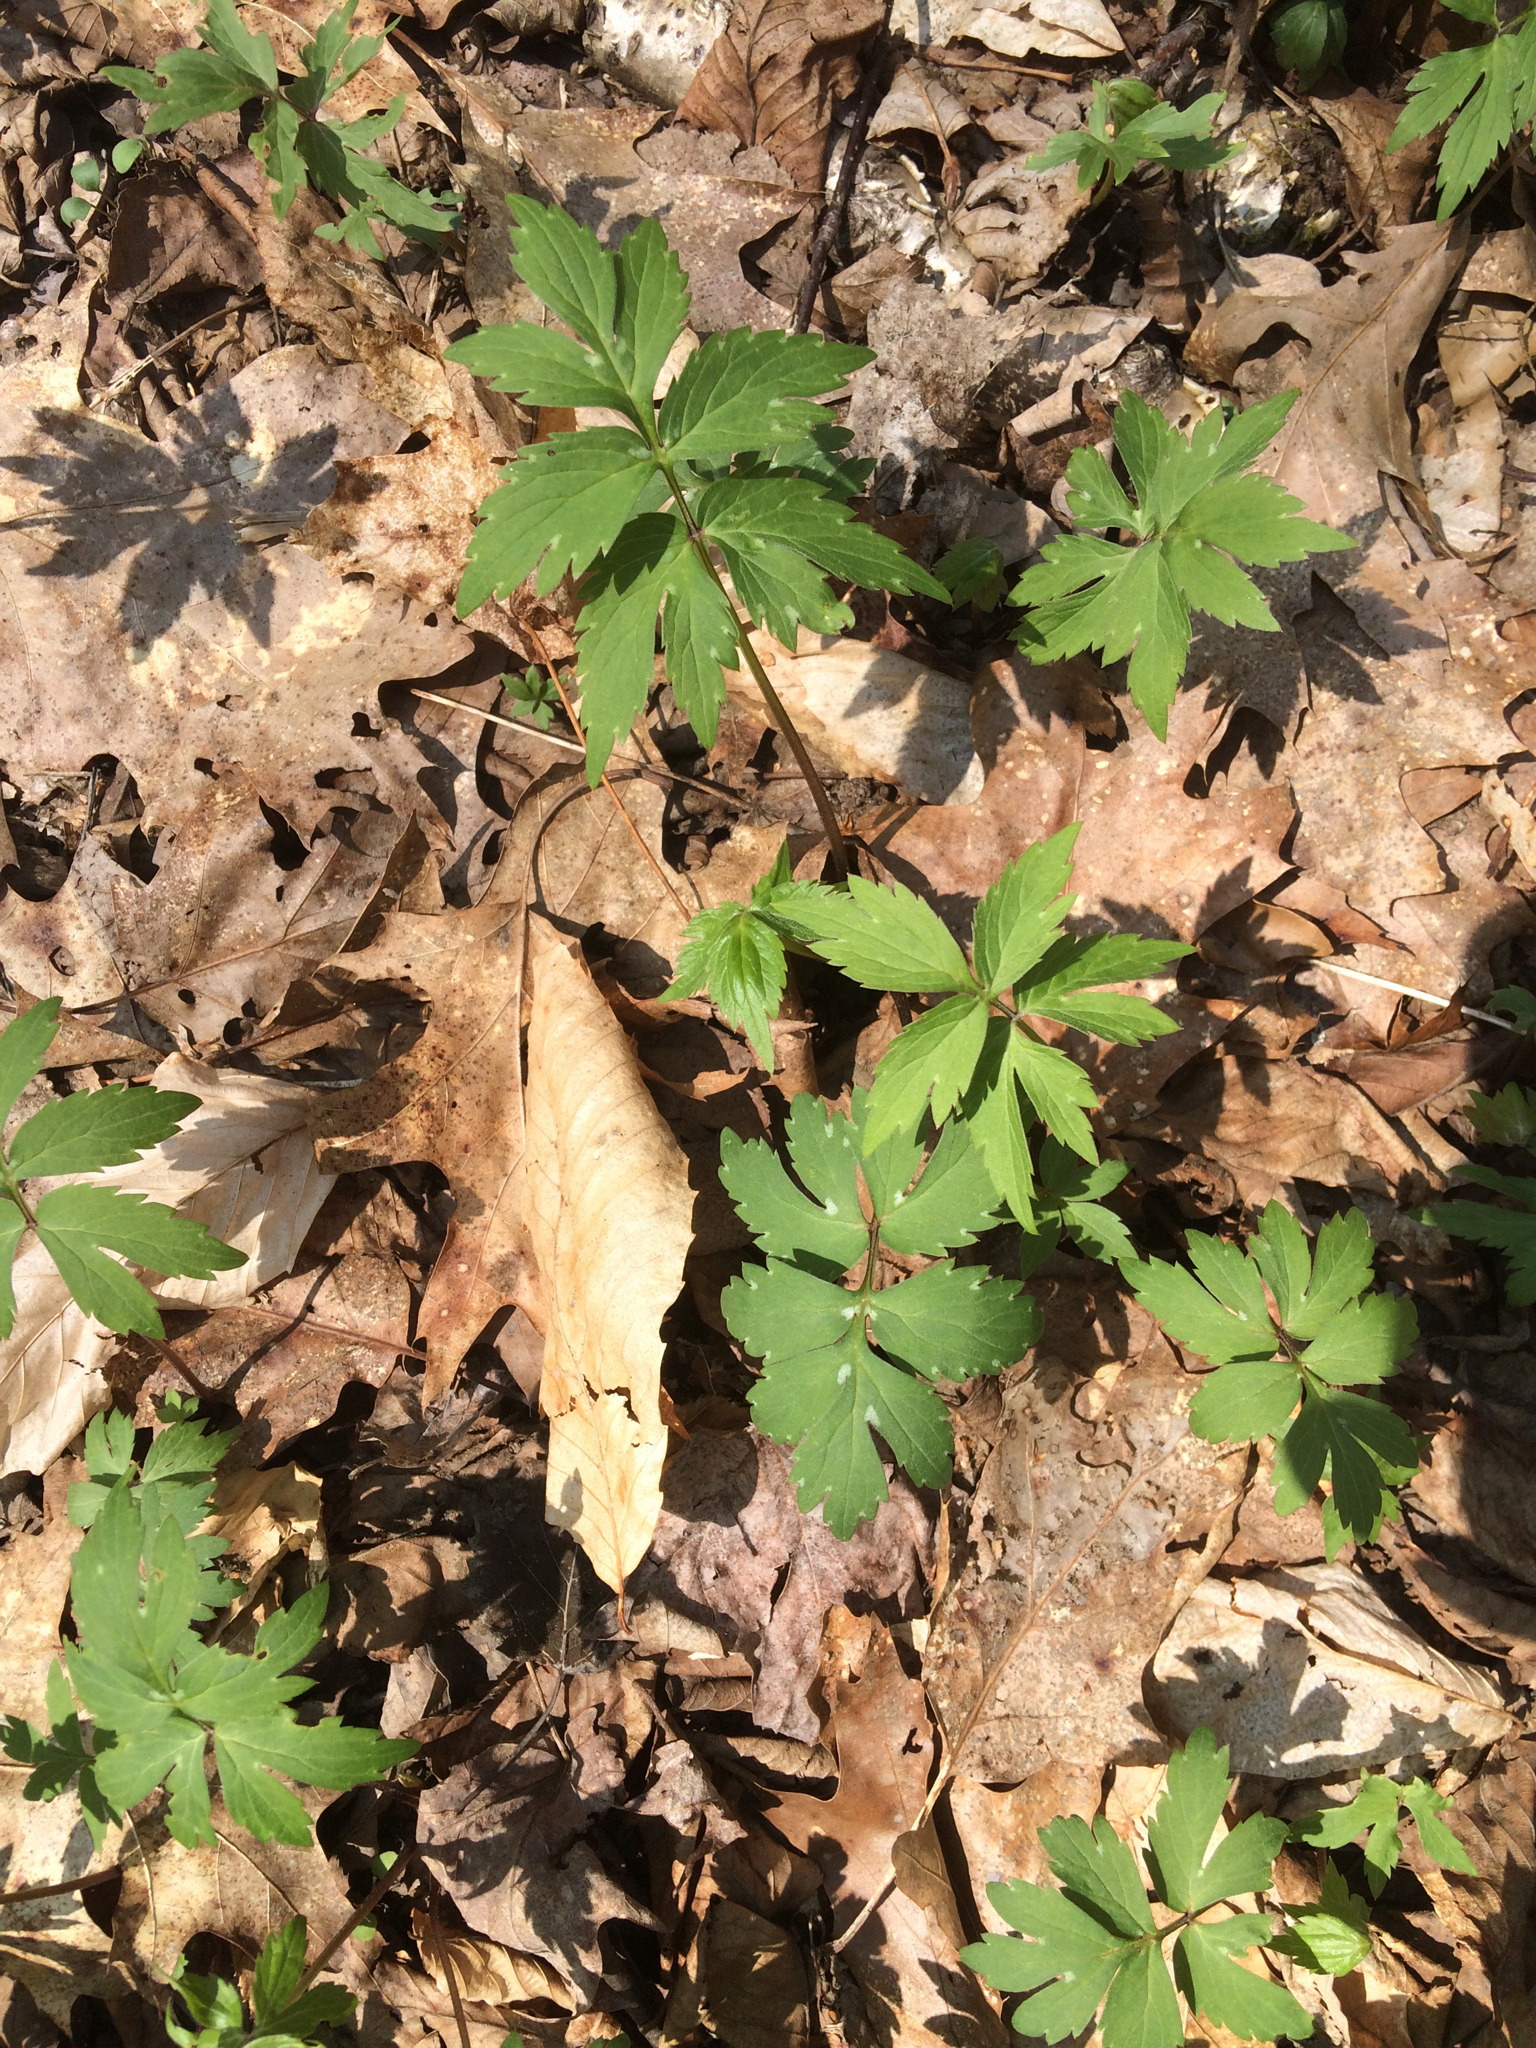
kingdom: Plantae
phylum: Tracheophyta
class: Magnoliopsida
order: Boraginales
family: Hydrophyllaceae
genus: Hydrophyllum
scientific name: Hydrophyllum virginianum
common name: Virginia waterleaf
